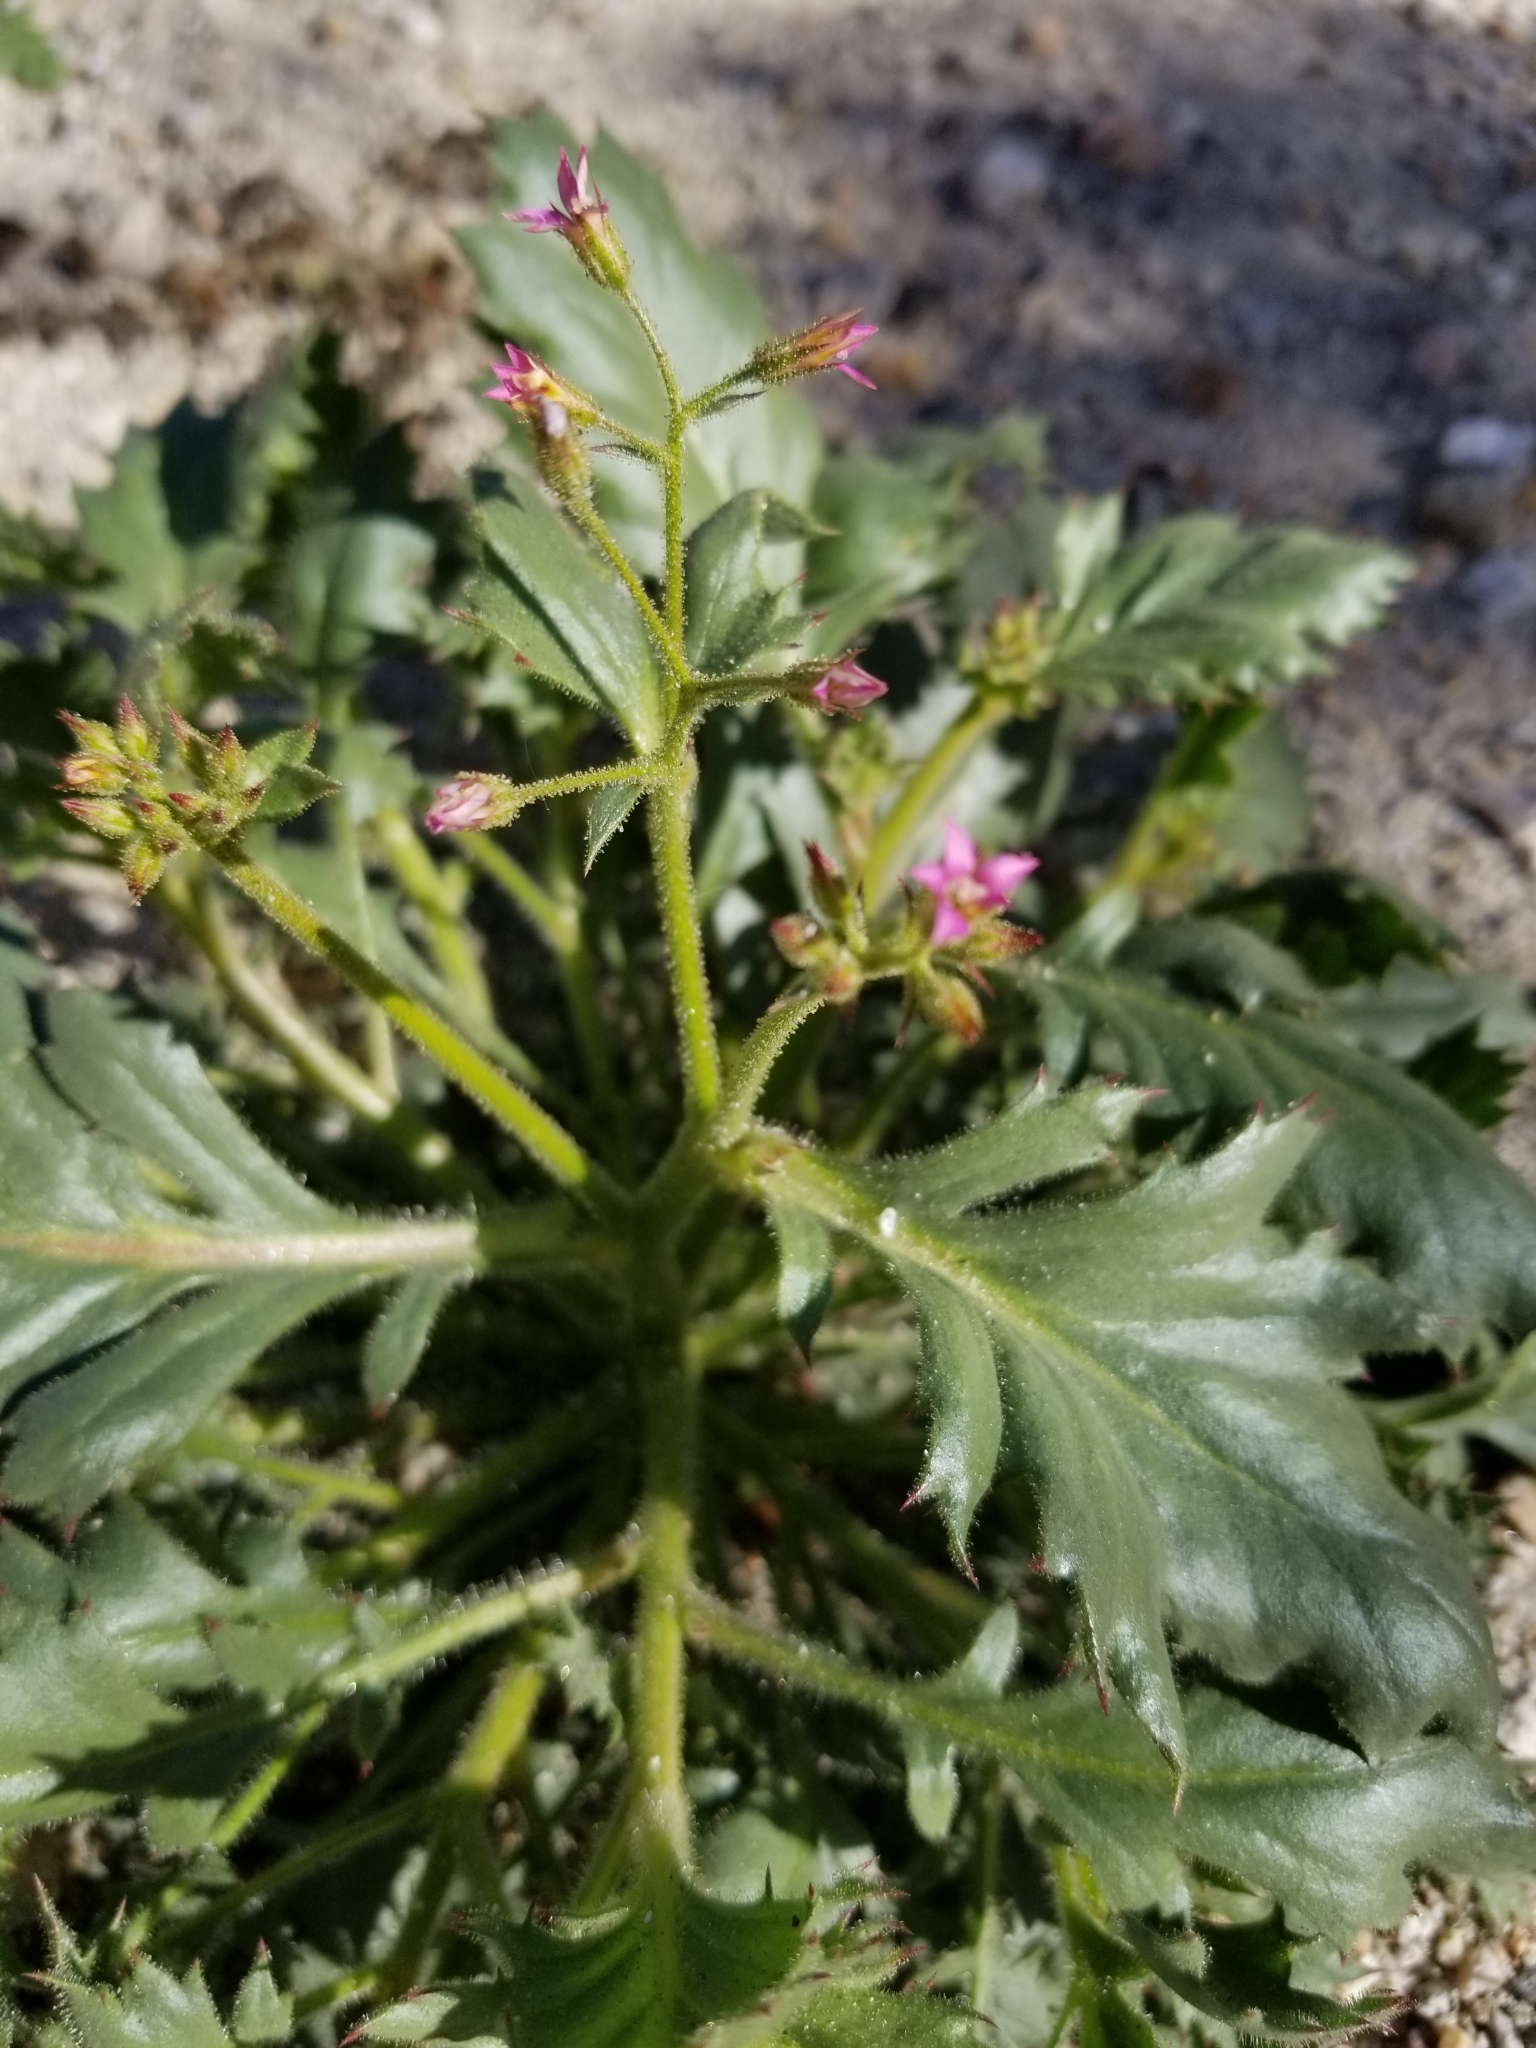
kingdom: Plantae
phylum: Tracheophyta
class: Magnoliopsida
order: Ericales
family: Polemoniaceae
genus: Aliciella
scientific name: Aliciella latifolia
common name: Broad-leaf gilia
